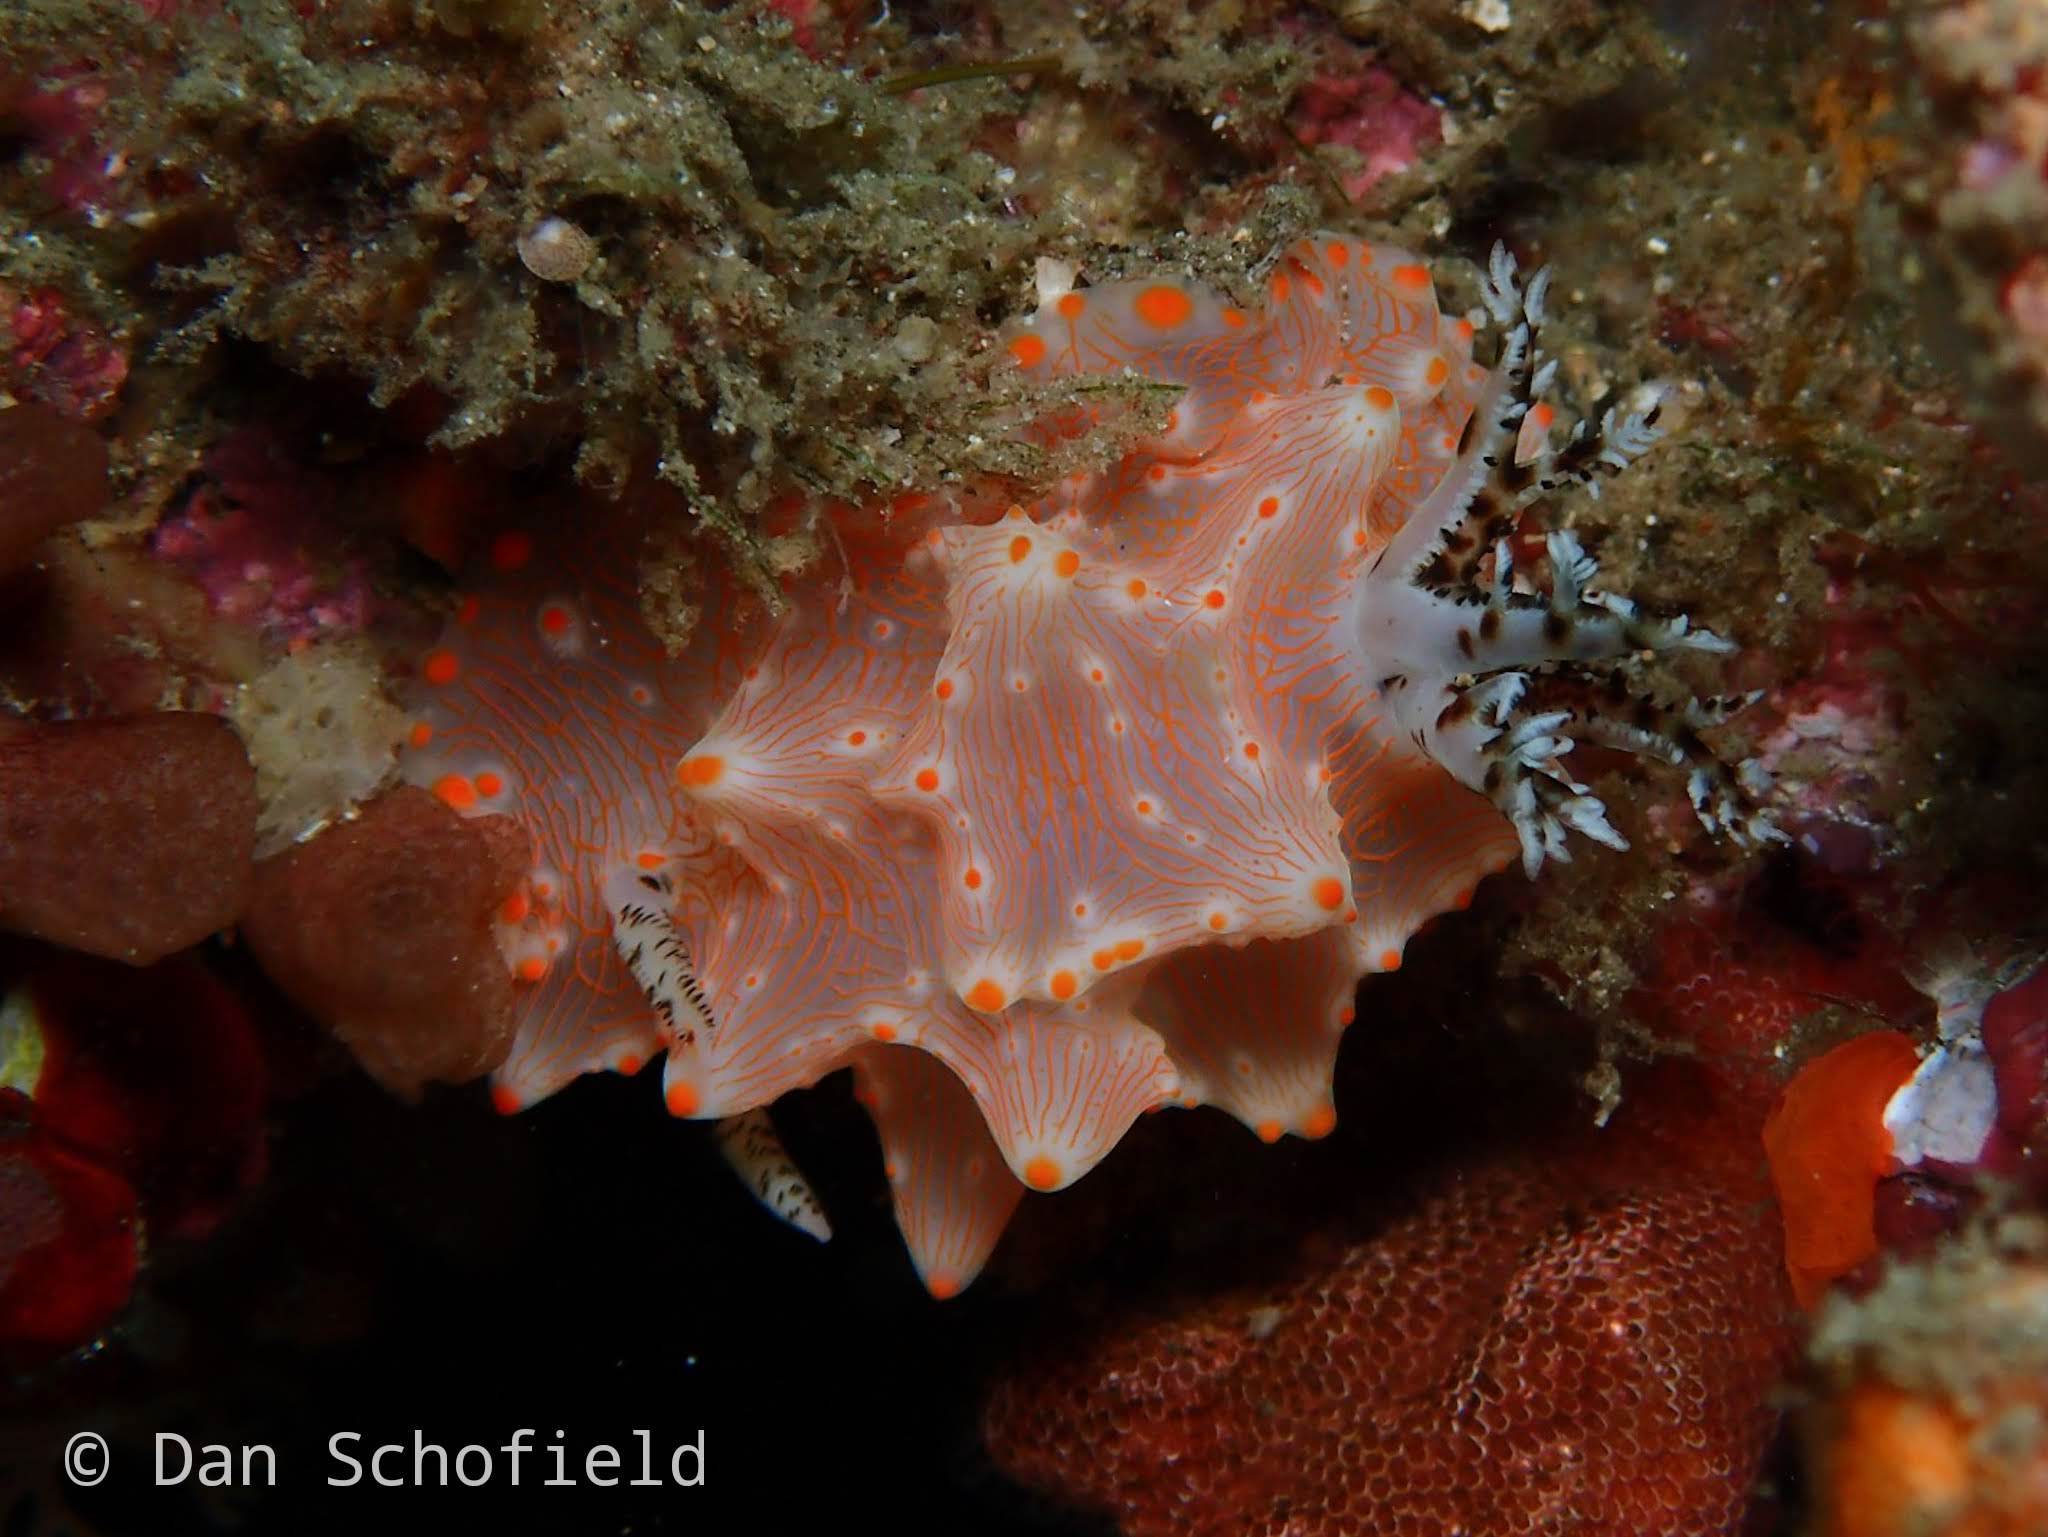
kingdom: Animalia
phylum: Mollusca
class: Gastropoda
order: Nudibranchia
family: Discodorididae
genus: Halgerda
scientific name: Halgerda batangas
